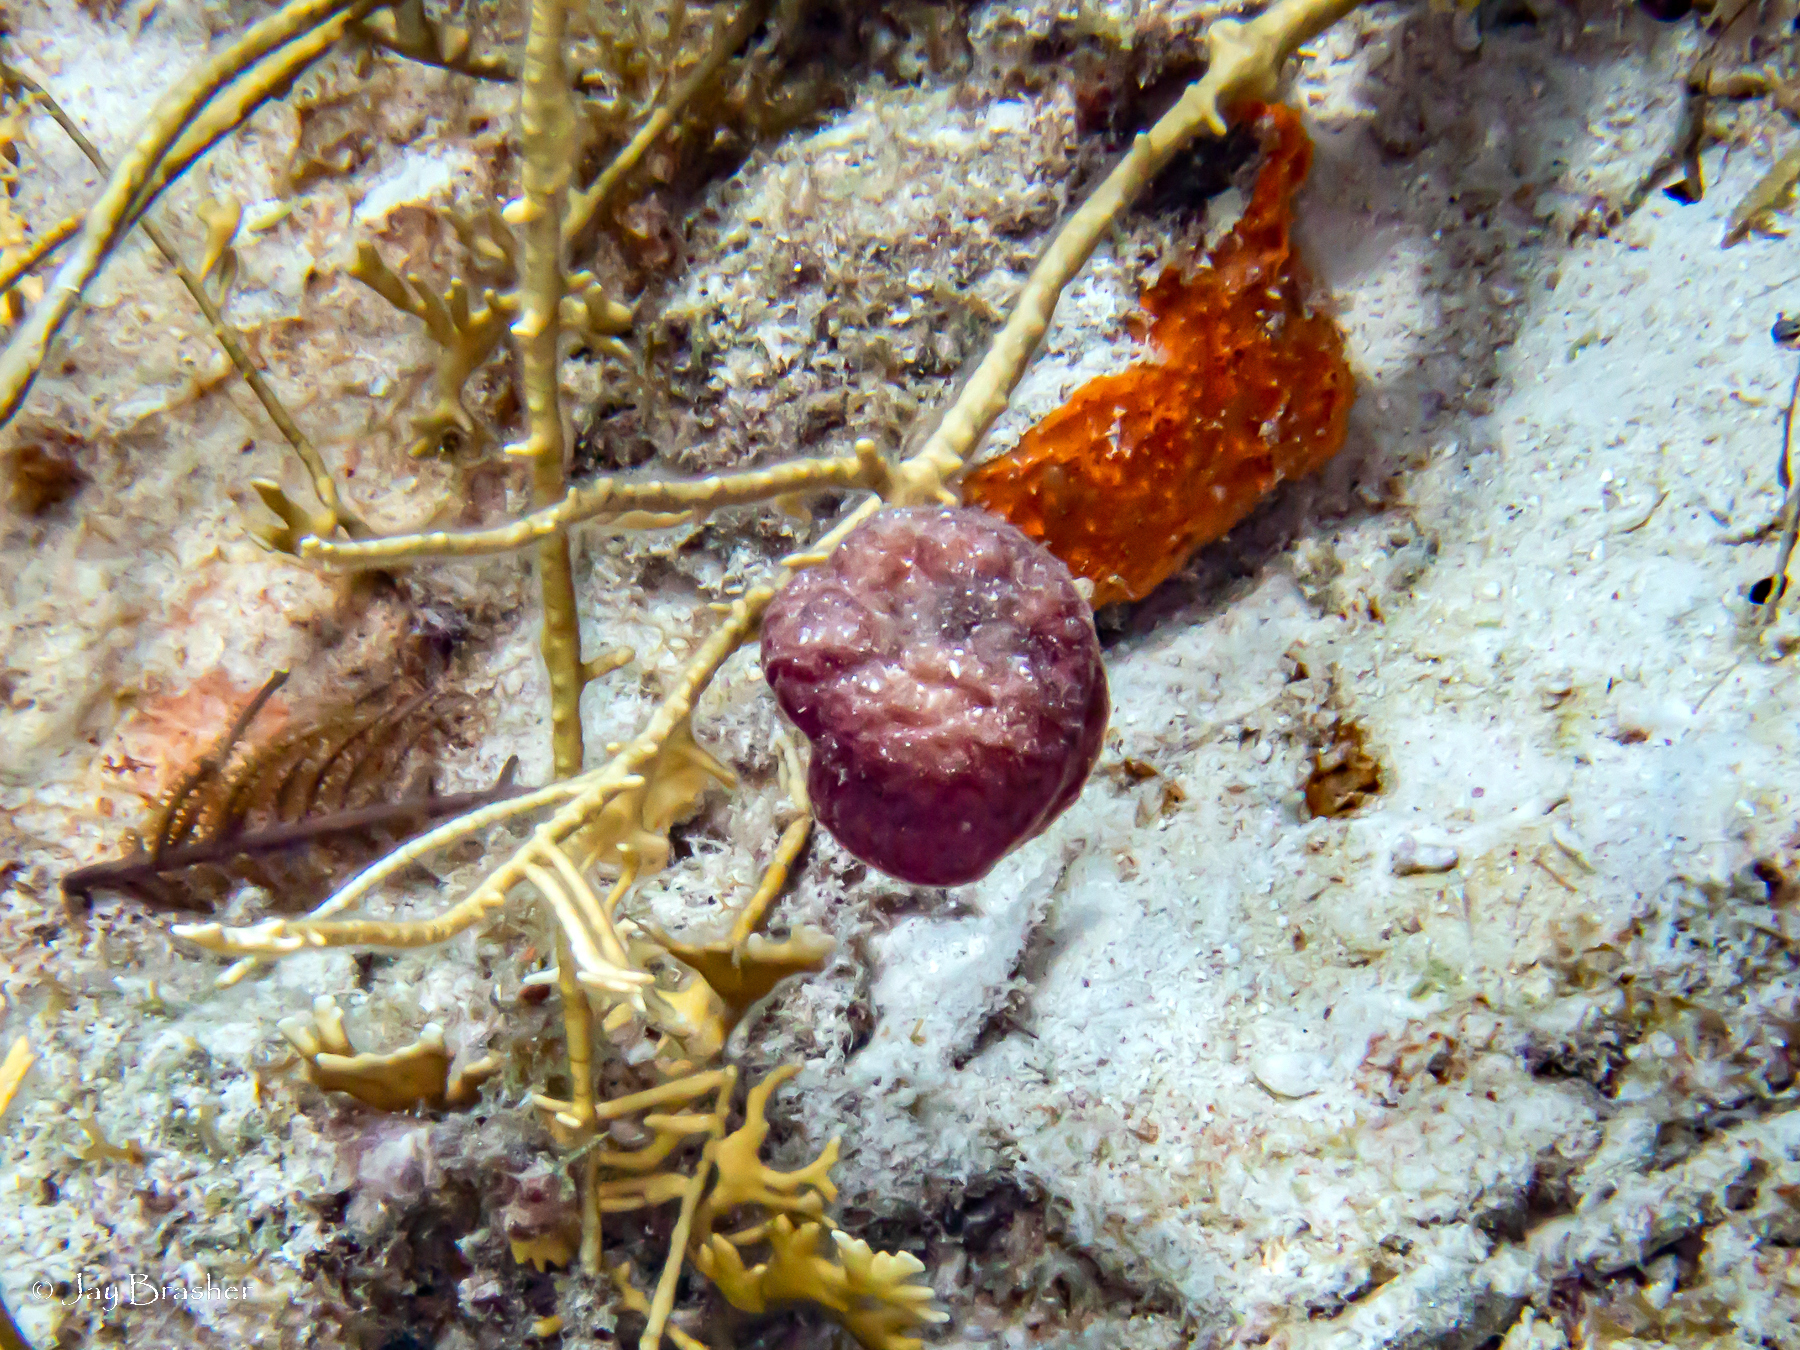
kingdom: Animalia
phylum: Cnidaria
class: Hydrozoa
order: Anthoathecata
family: Milleporidae
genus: Millepora
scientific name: Millepora alcicornis
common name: Branching fire coral
